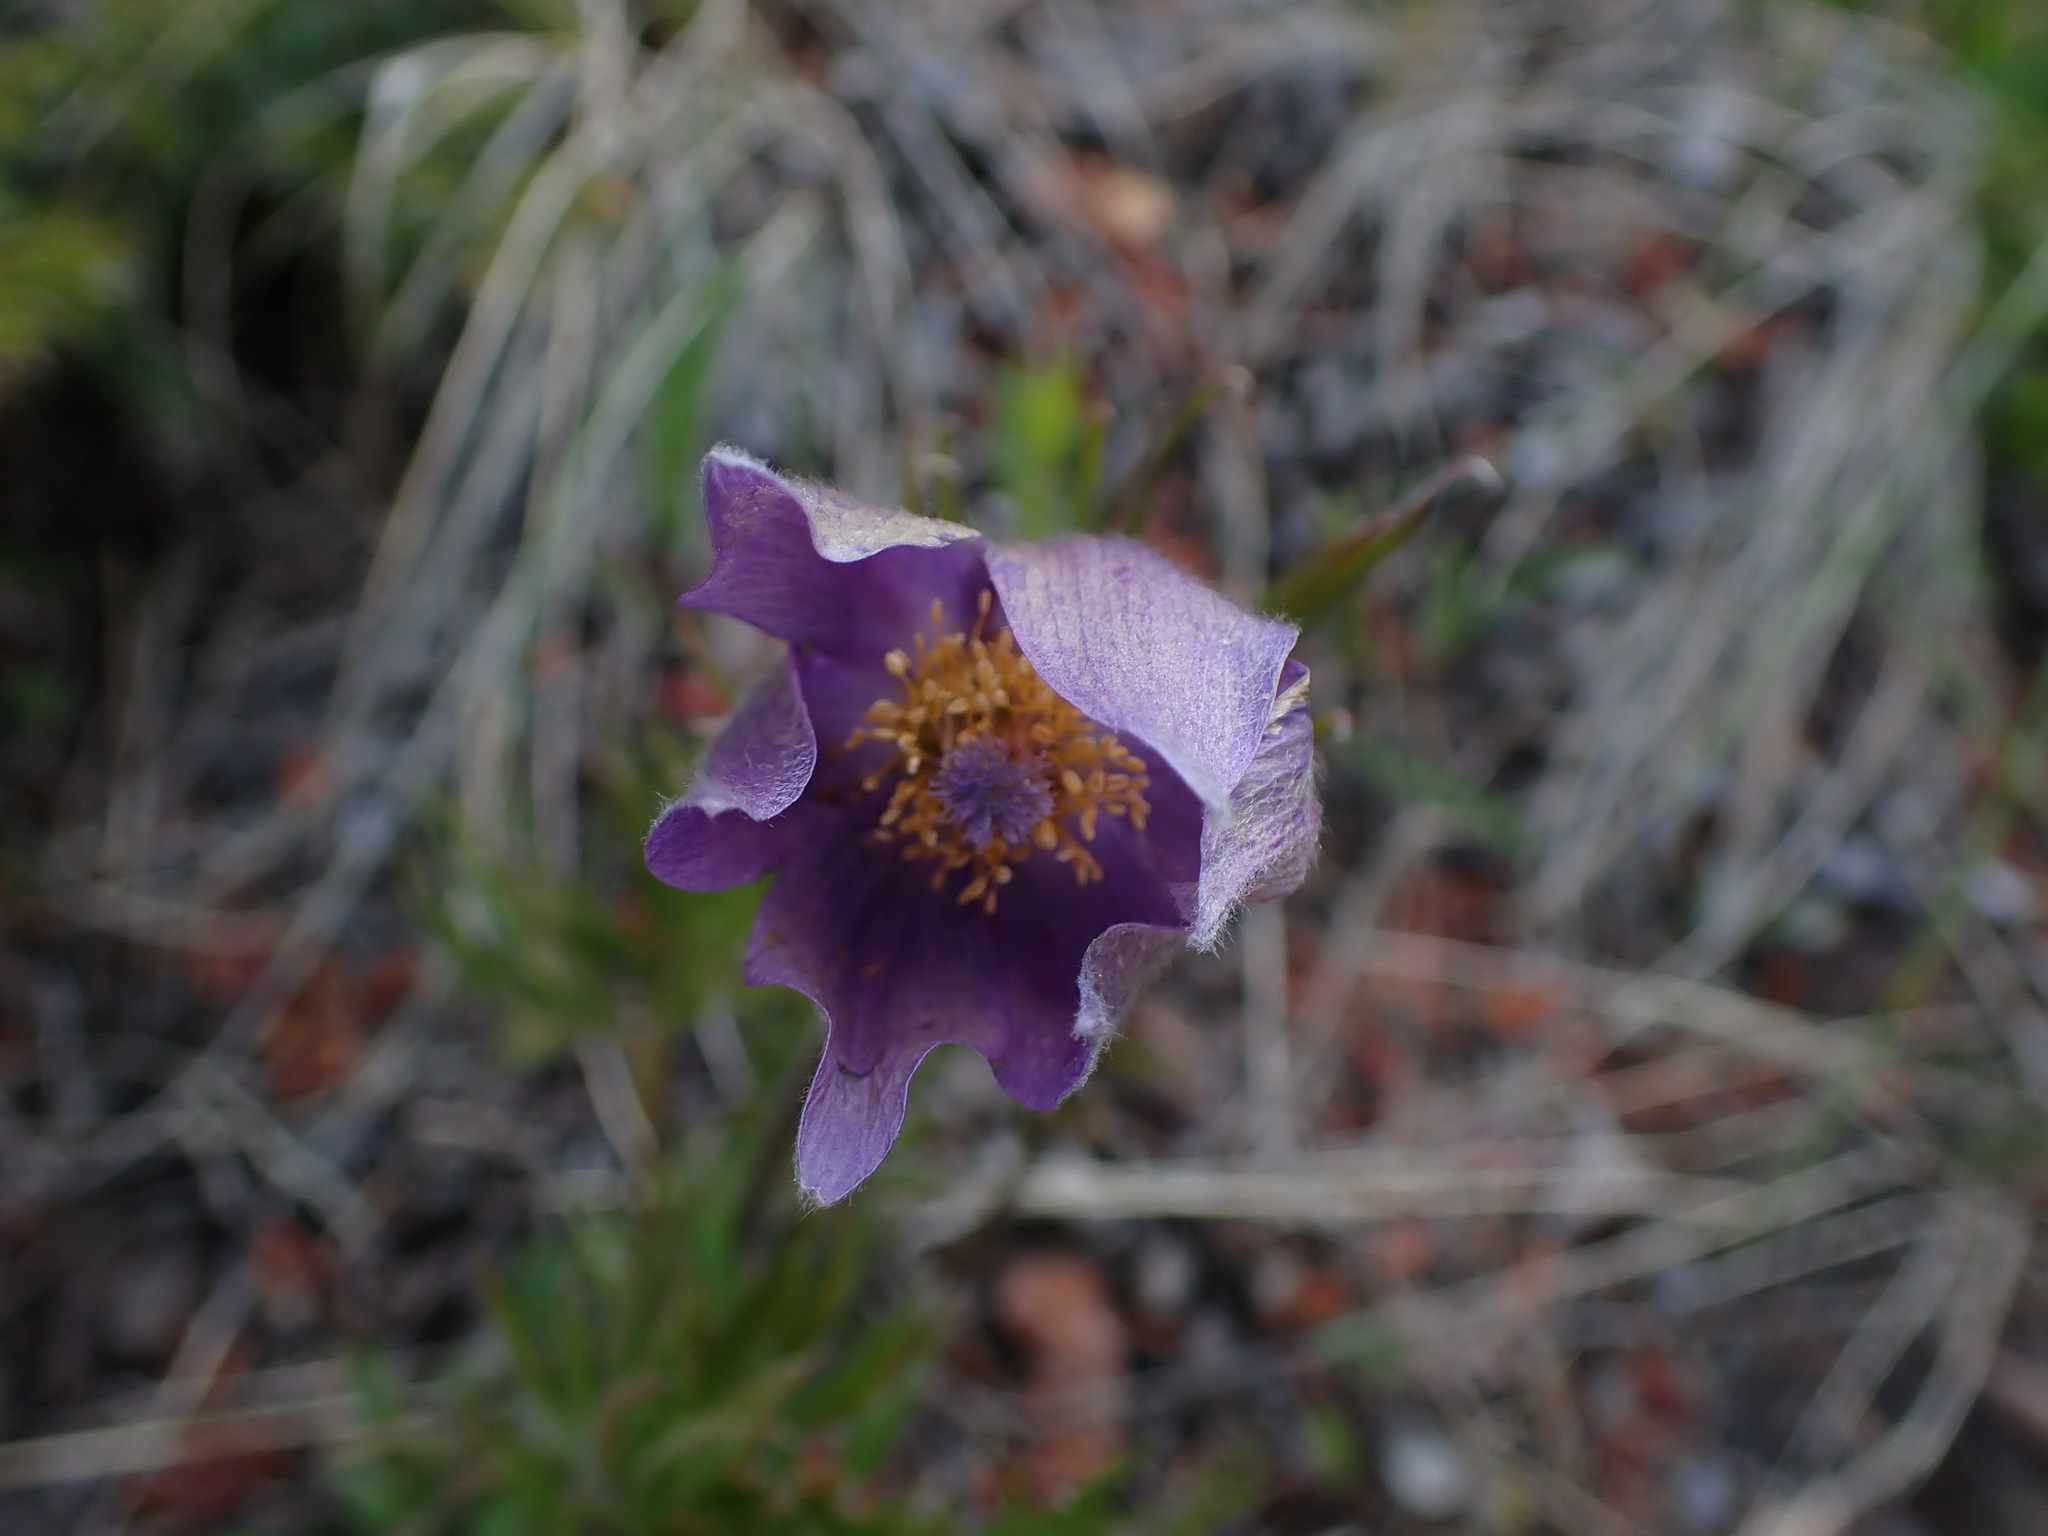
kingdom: Plantae
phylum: Tracheophyta
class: Magnoliopsida
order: Ranunculales
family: Ranunculaceae
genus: Pulsatilla
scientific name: Pulsatilla nuttalliana
